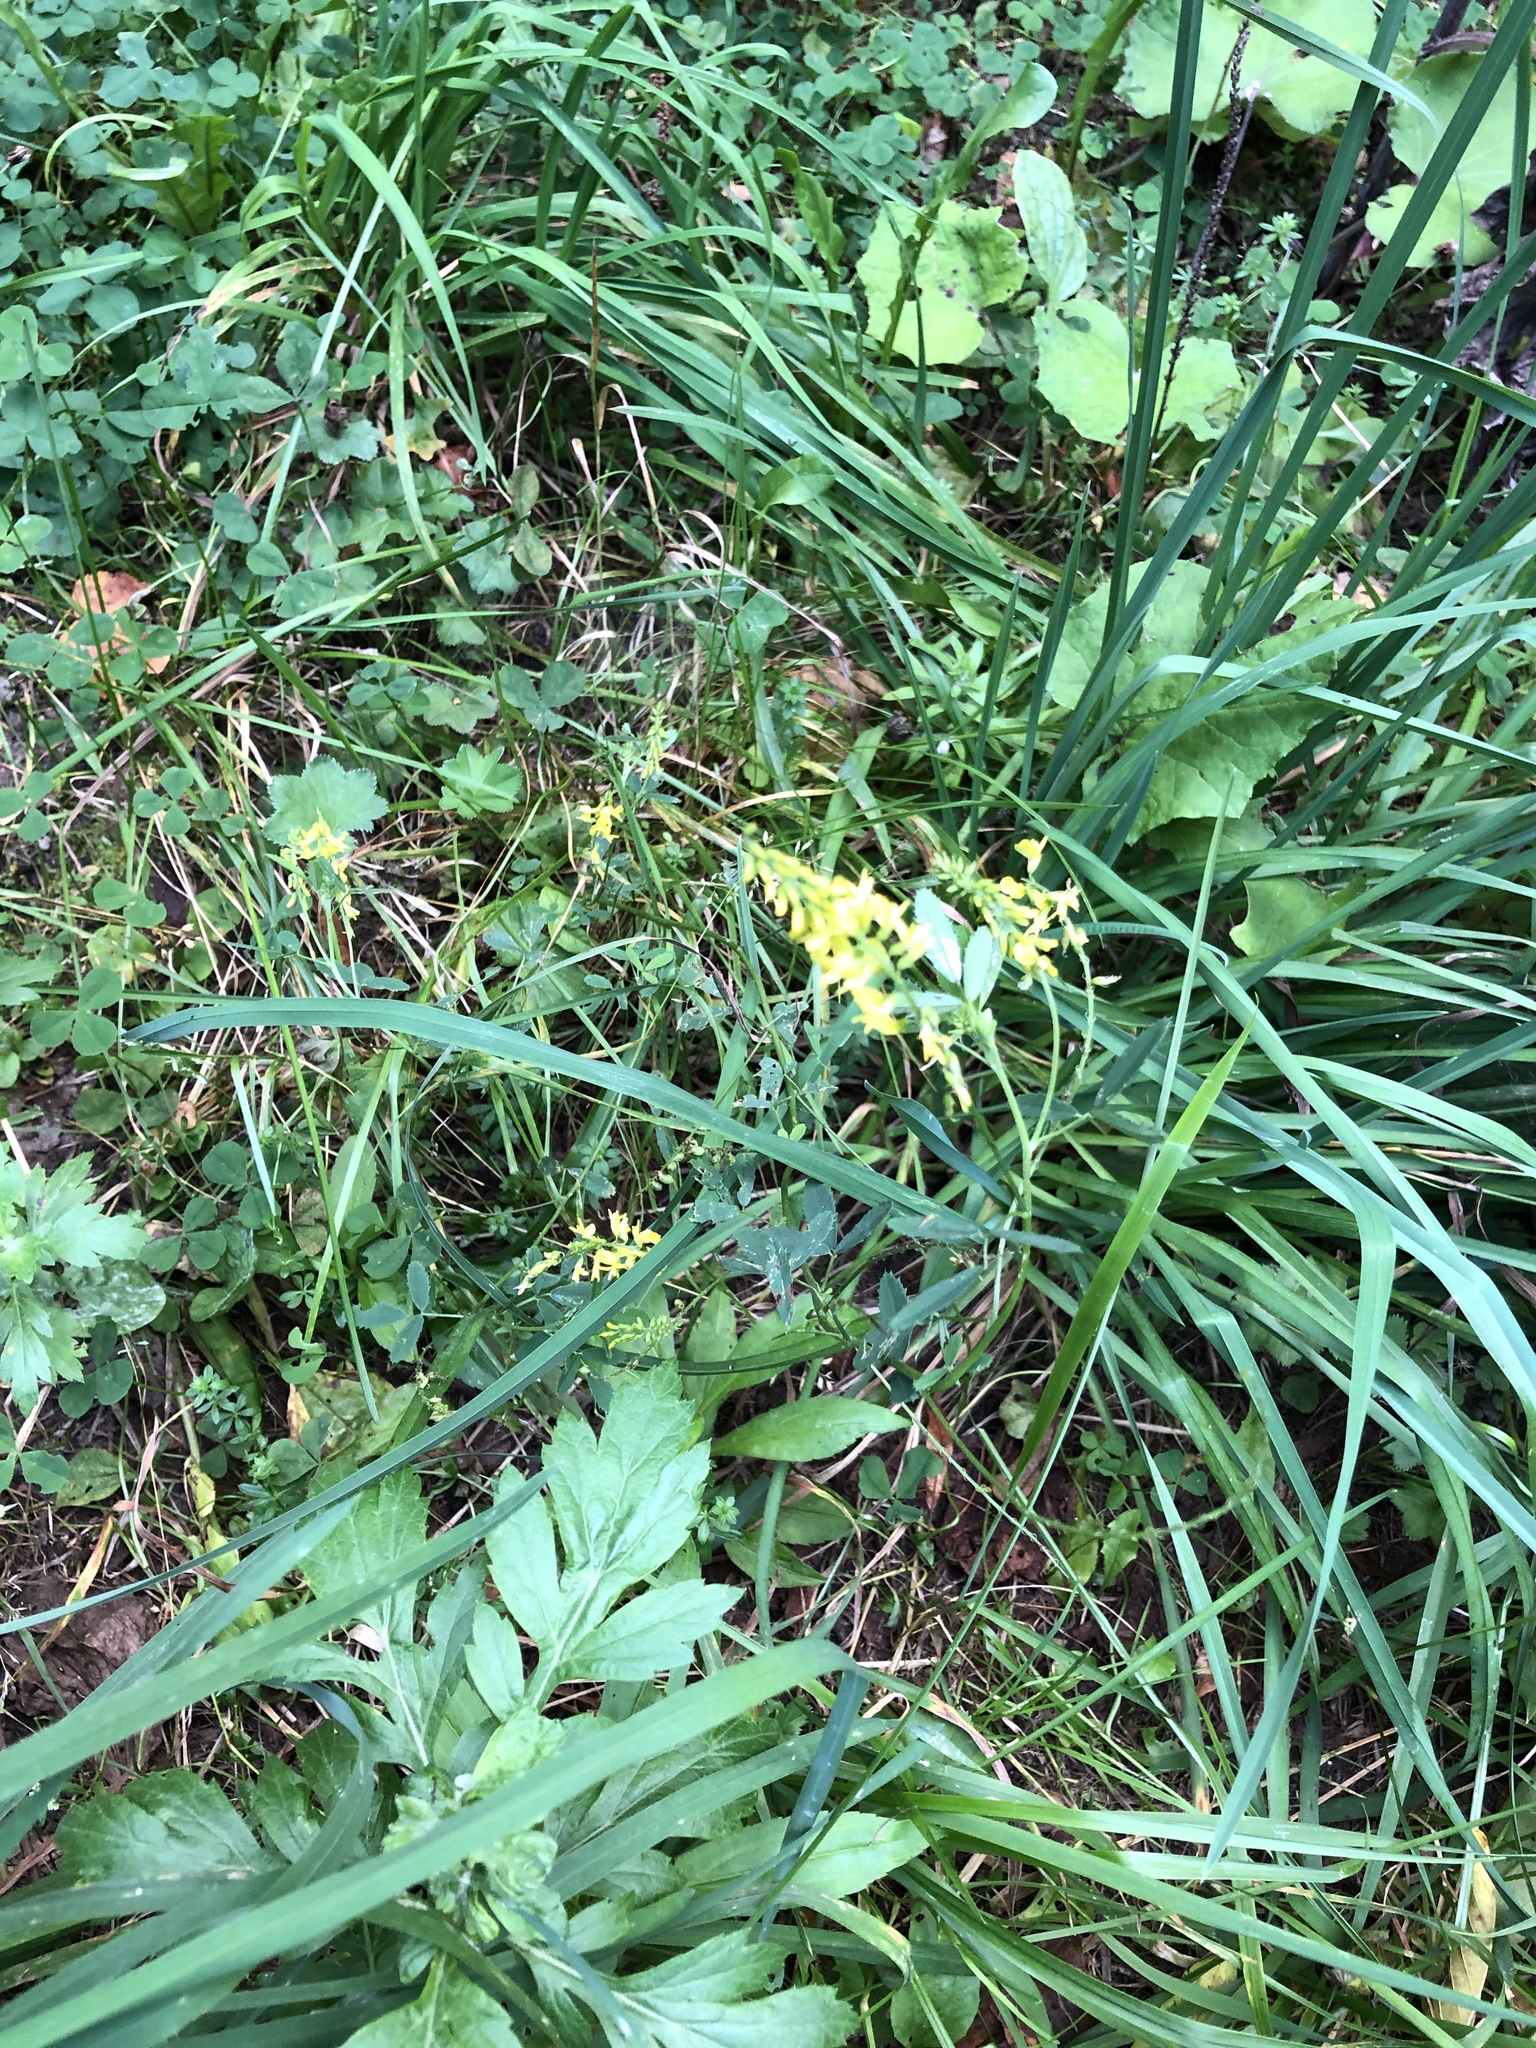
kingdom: Plantae
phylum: Tracheophyta
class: Magnoliopsida
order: Fabales
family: Fabaceae
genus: Melilotus
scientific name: Melilotus officinalis
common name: Sweetclover
